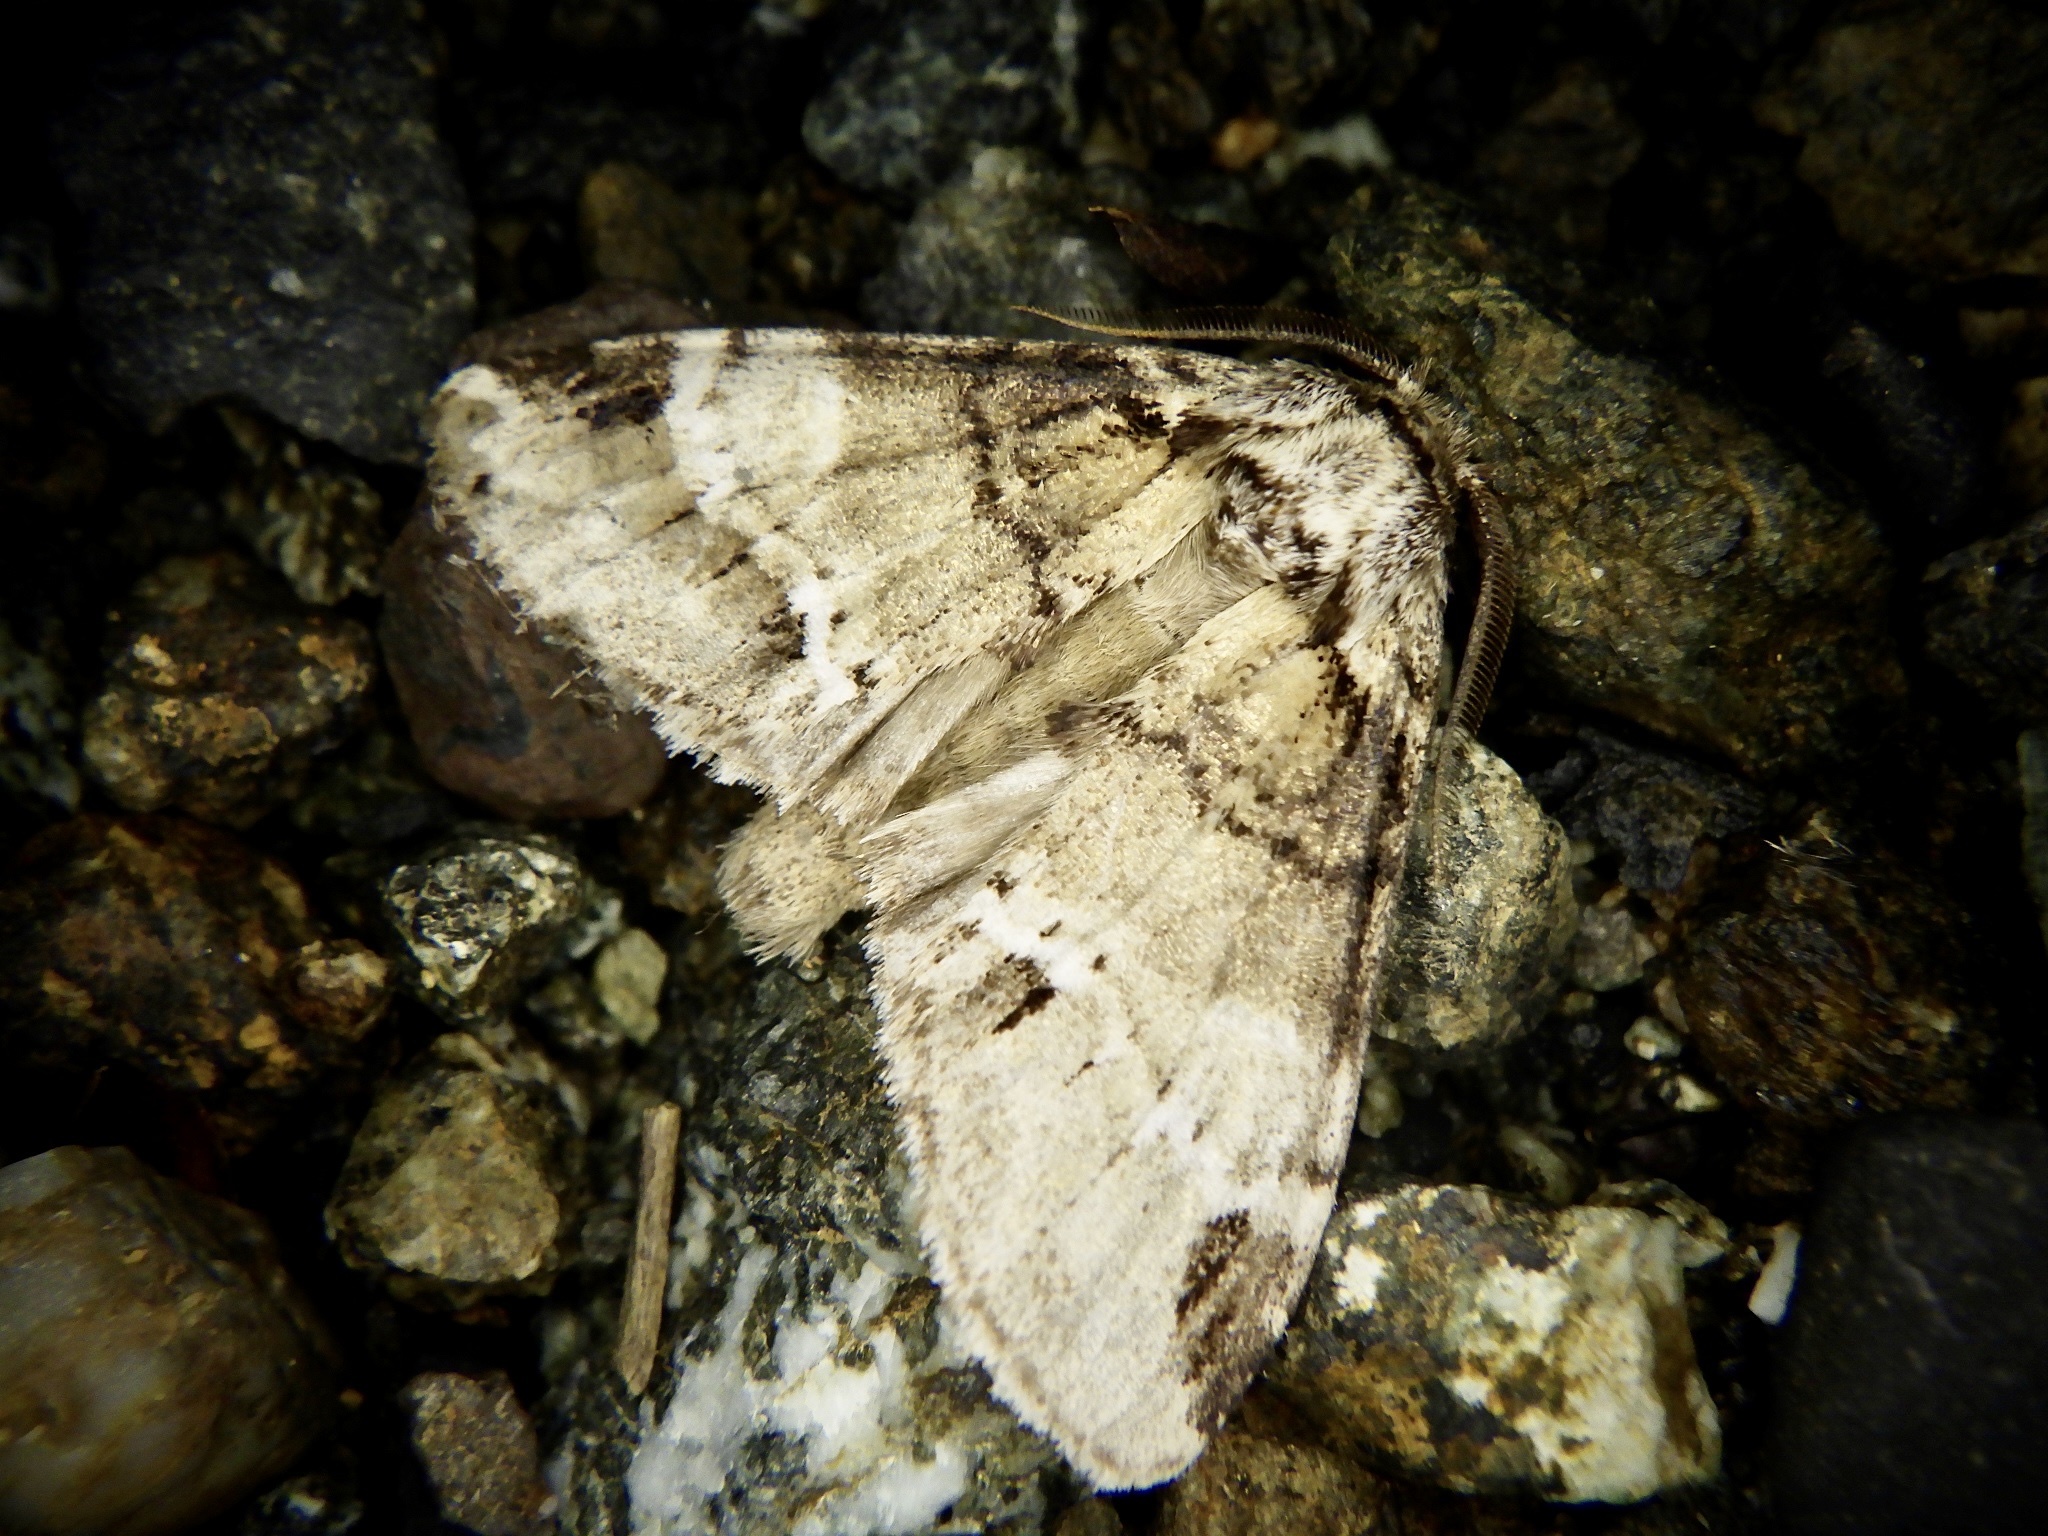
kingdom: Animalia
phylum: Arthropoda
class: Insecta
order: Lepidoptera
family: Notodontidae
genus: Drymonia
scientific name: Drymonia japonica
